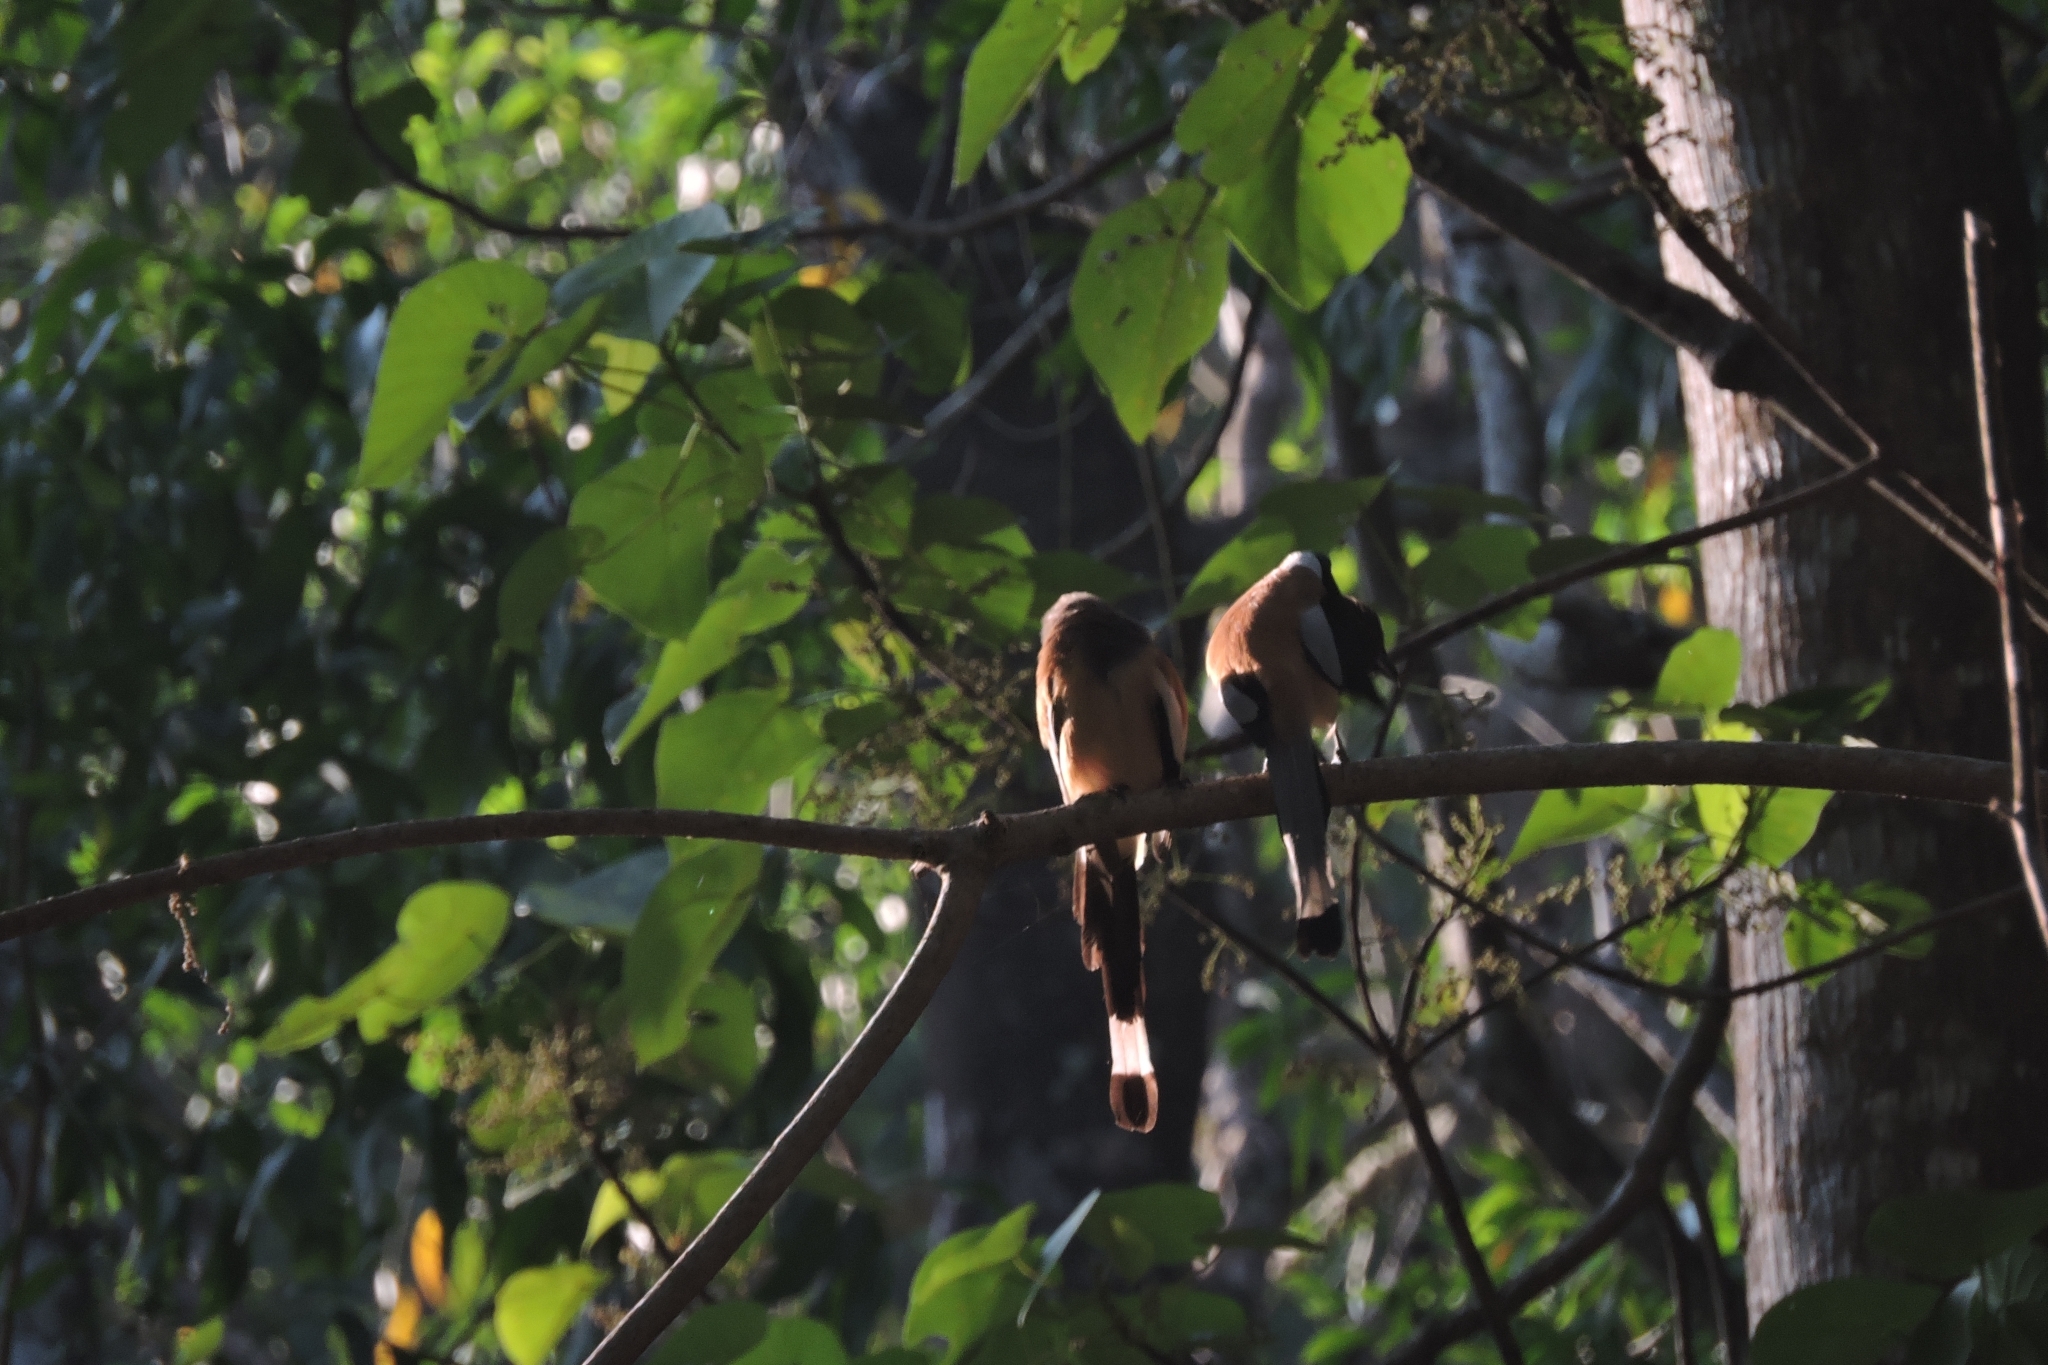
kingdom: Animalia
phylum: Chordata
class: Aves
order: Passeriformes
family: Corvidae
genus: Dendrocitta
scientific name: Dendrocitta vagabunda
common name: Rufous treepie
